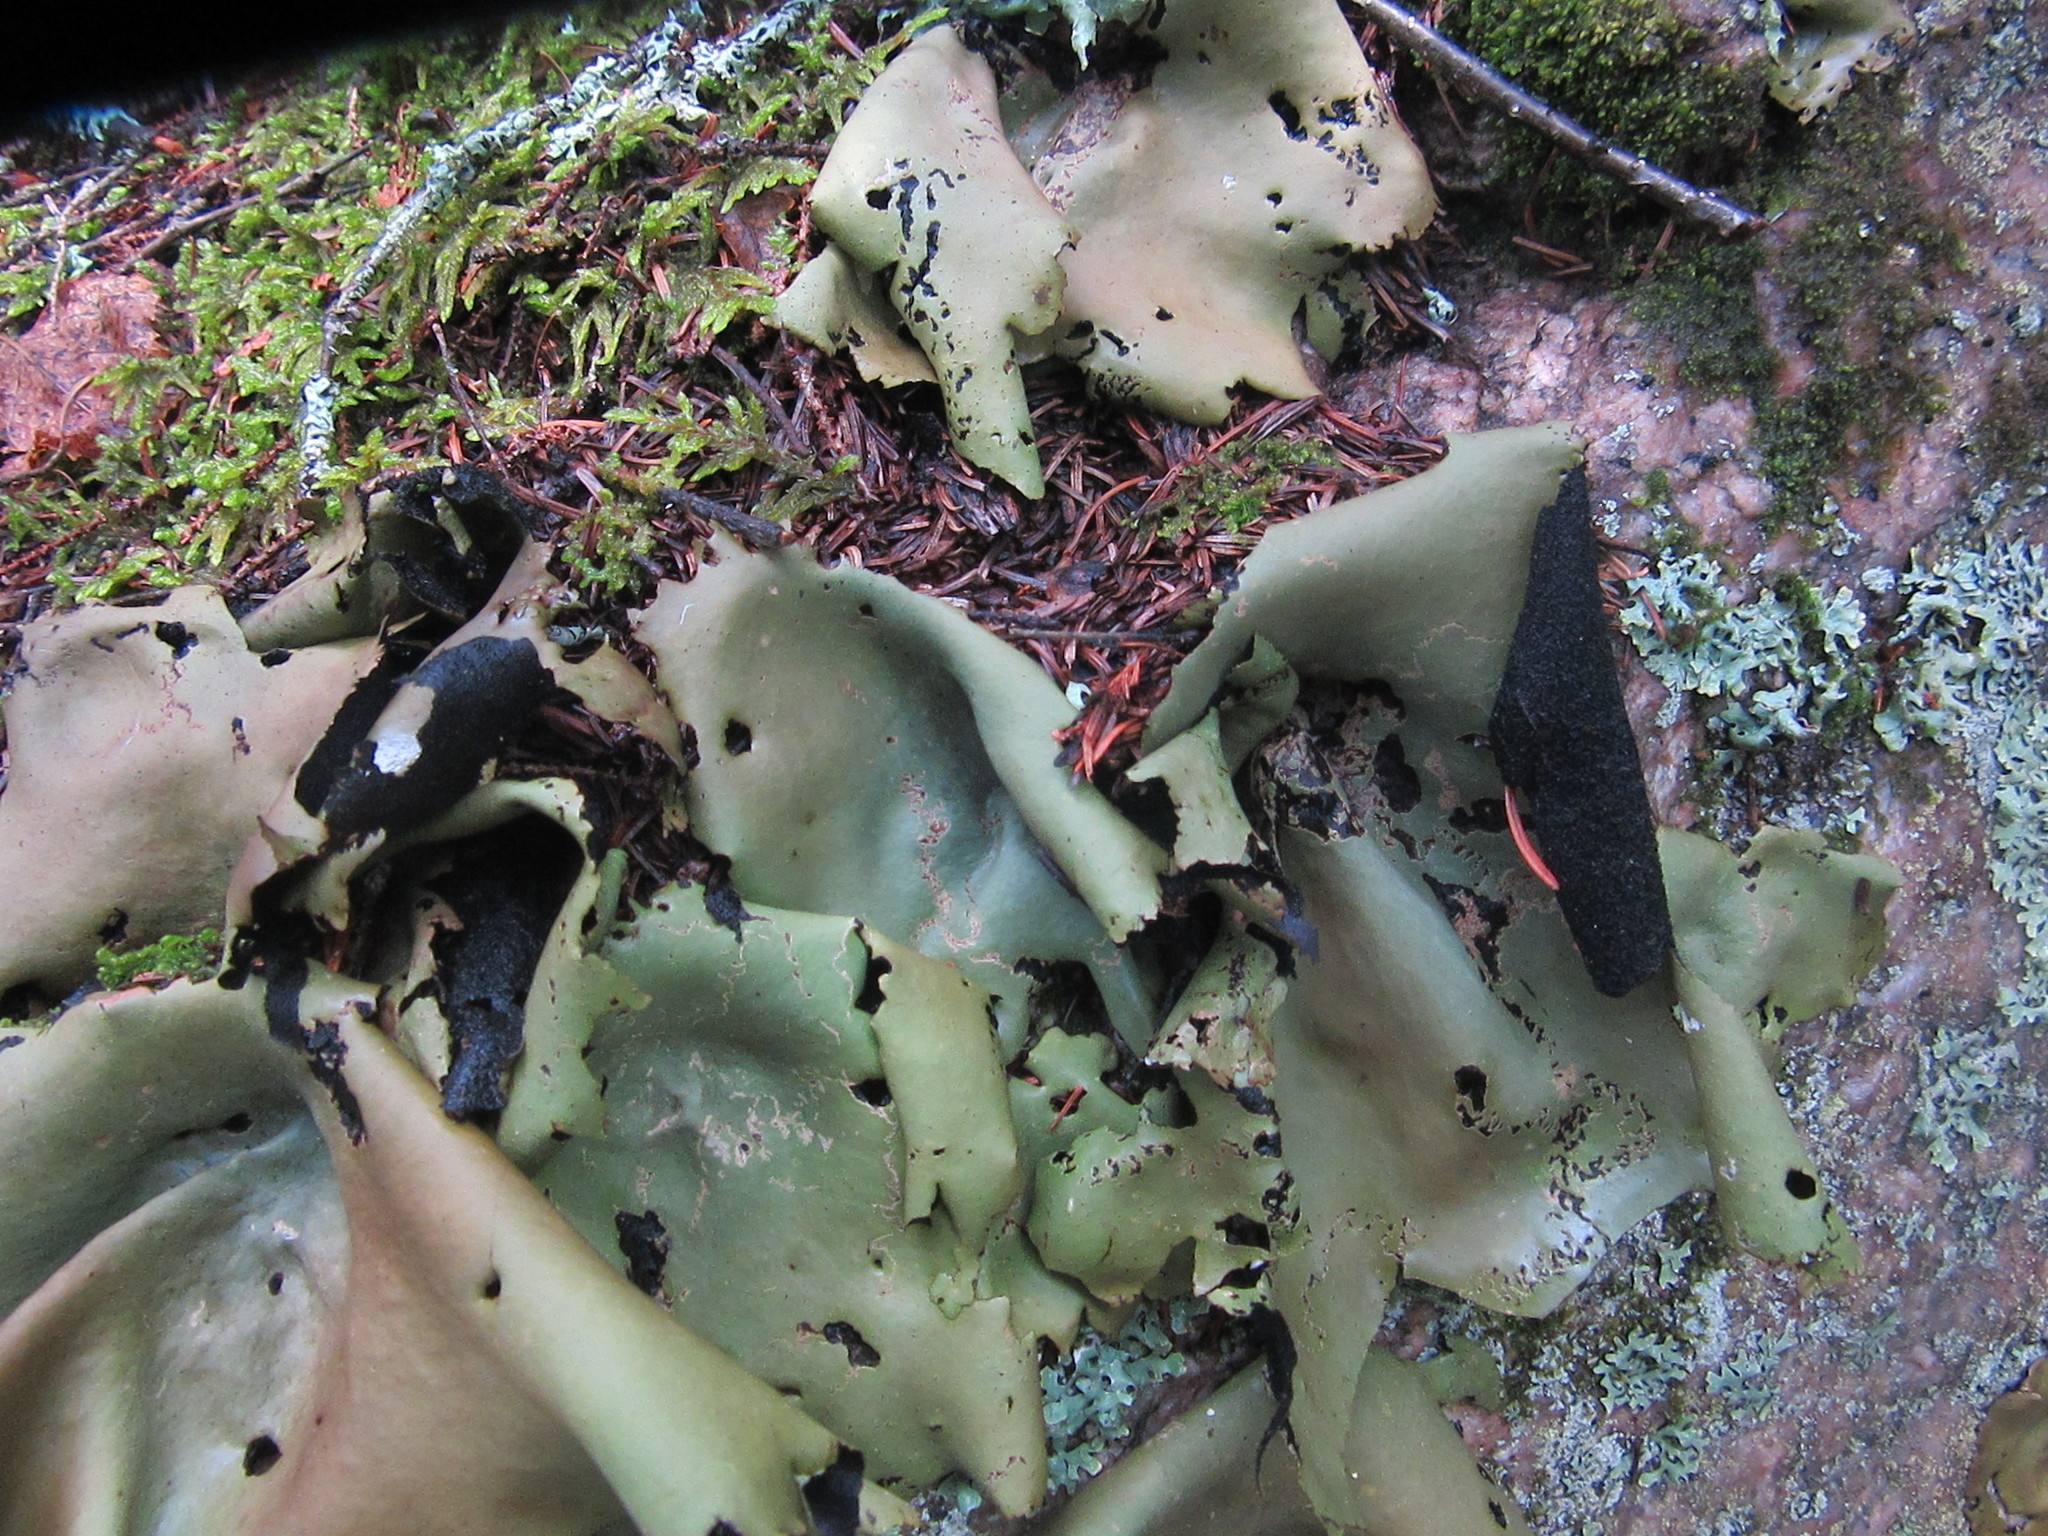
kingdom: Fungi
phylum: Ascomycota
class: Lecanoromycetes
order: Umbilicariales
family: Umbilicariaceae
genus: Umbilicaria
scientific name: Umbilicaria mammulata
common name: Smooth rock tripe
